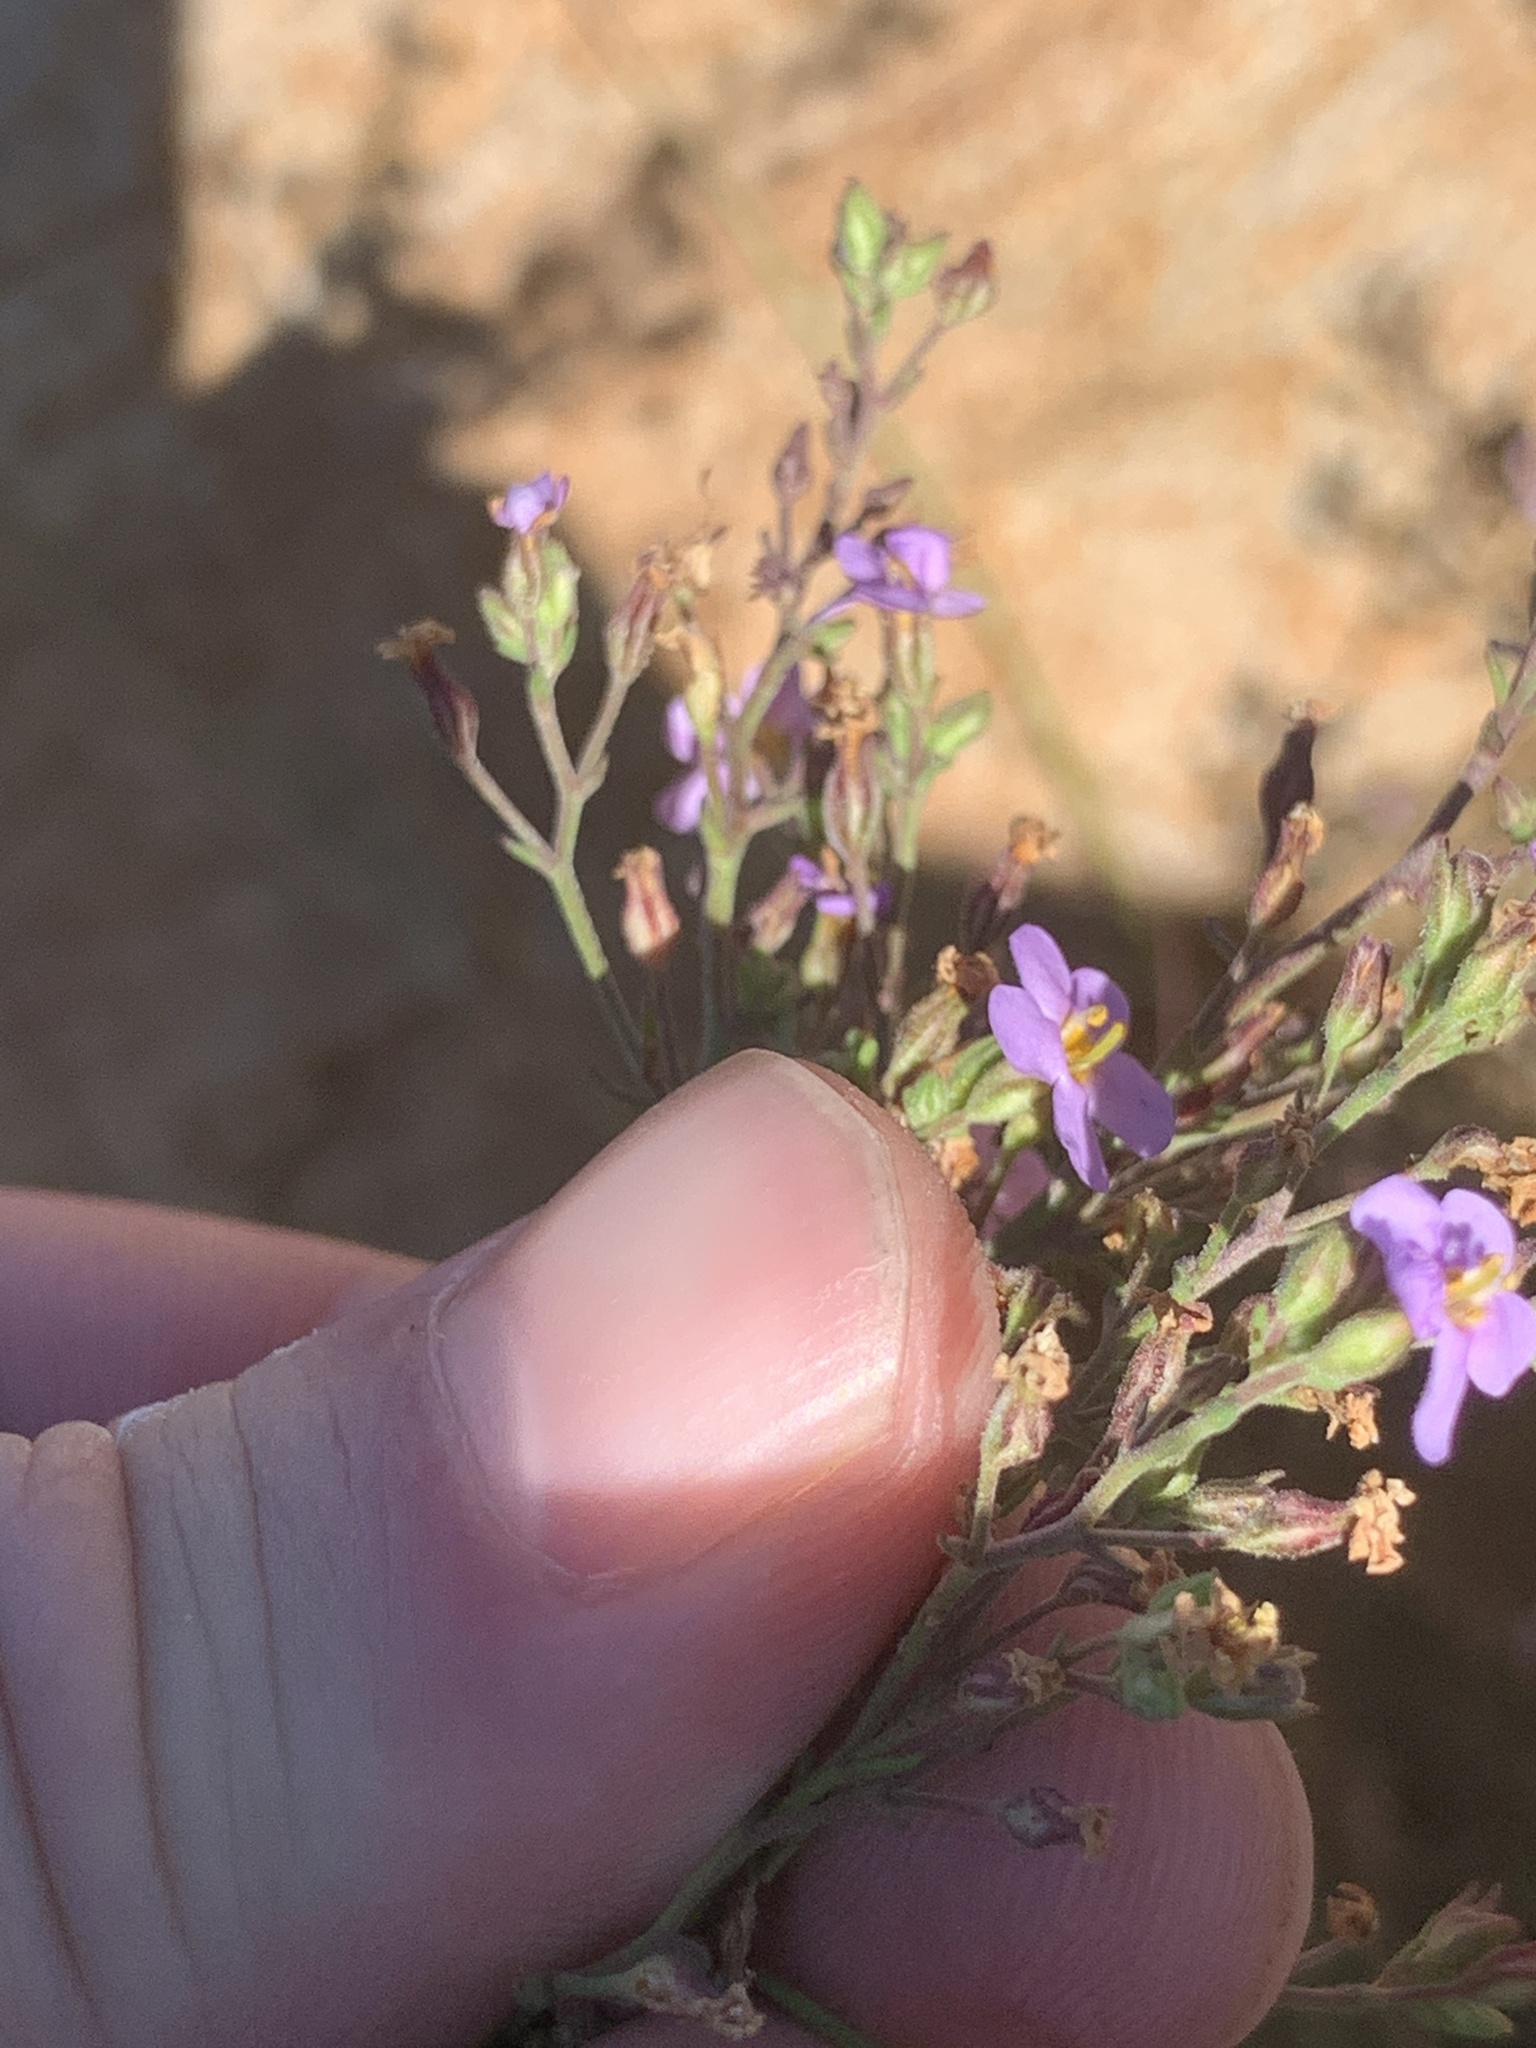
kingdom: Plantae
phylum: Tracheophyta
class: Magnoliopsida
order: Lamiales
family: Scrophulariaceae
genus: Chaenostoma
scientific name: Chaenostoma leve
